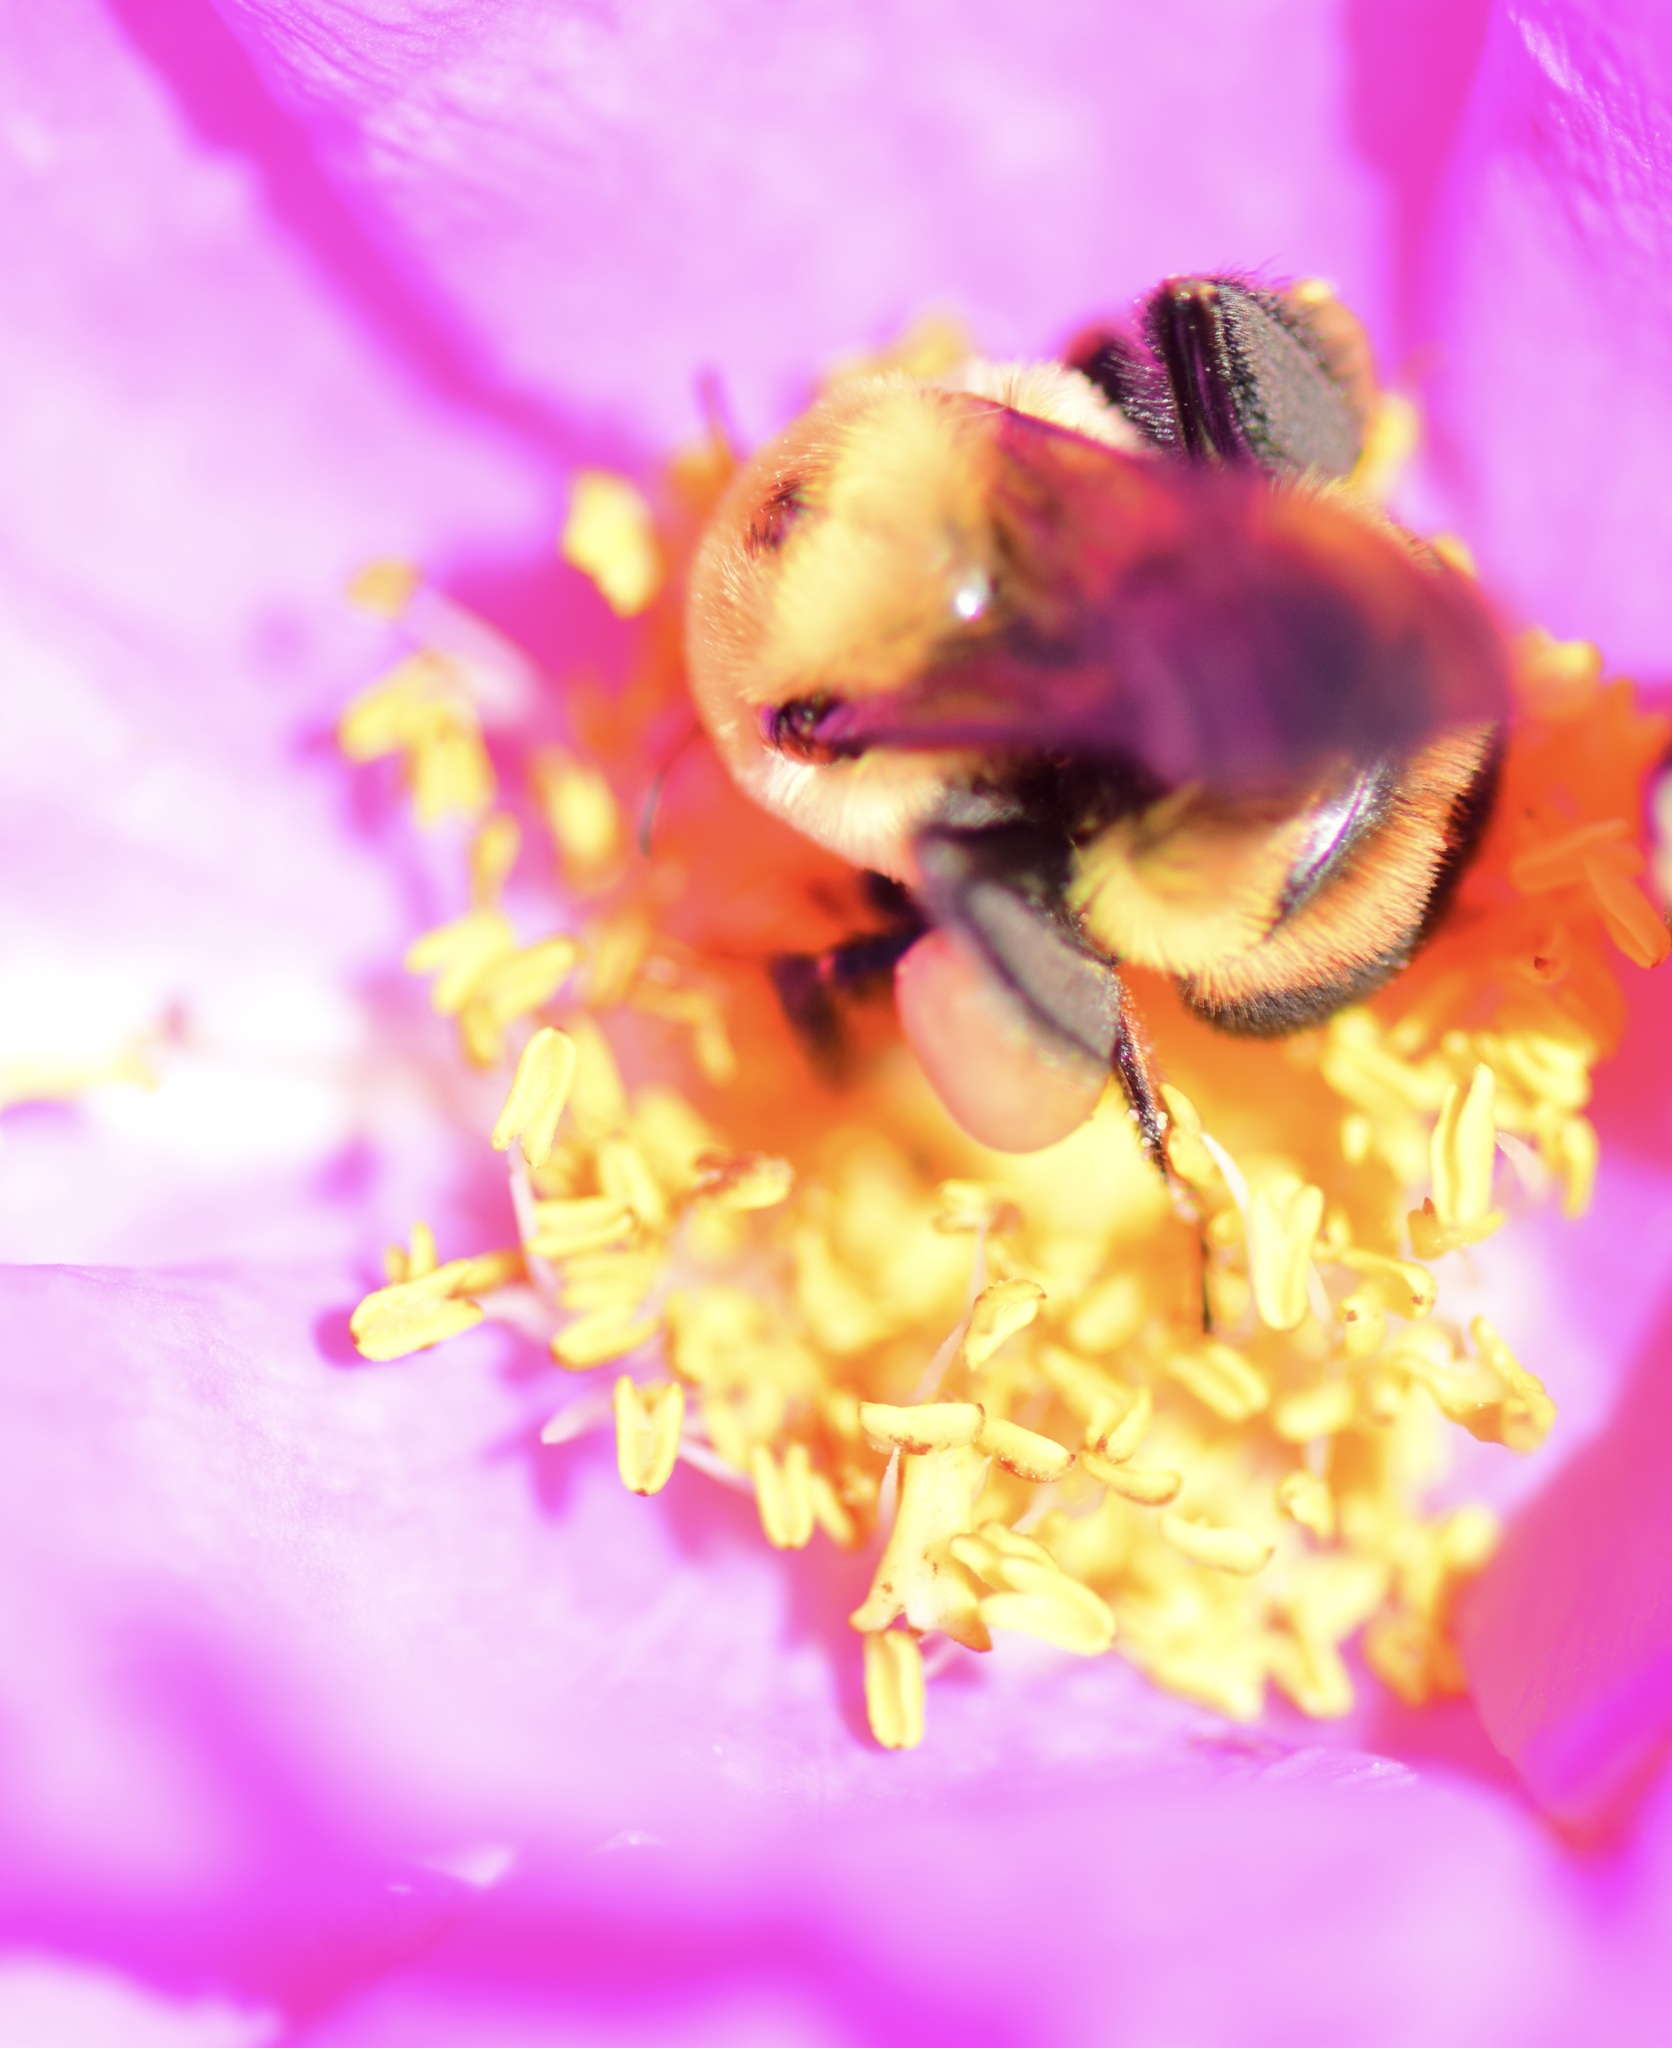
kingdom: Animalia
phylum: Arthropoda
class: Insecta
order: Hymenoptera
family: Apidae
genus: Bombus
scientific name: Bombus griseocollis
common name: Brown-belted bumble bee
